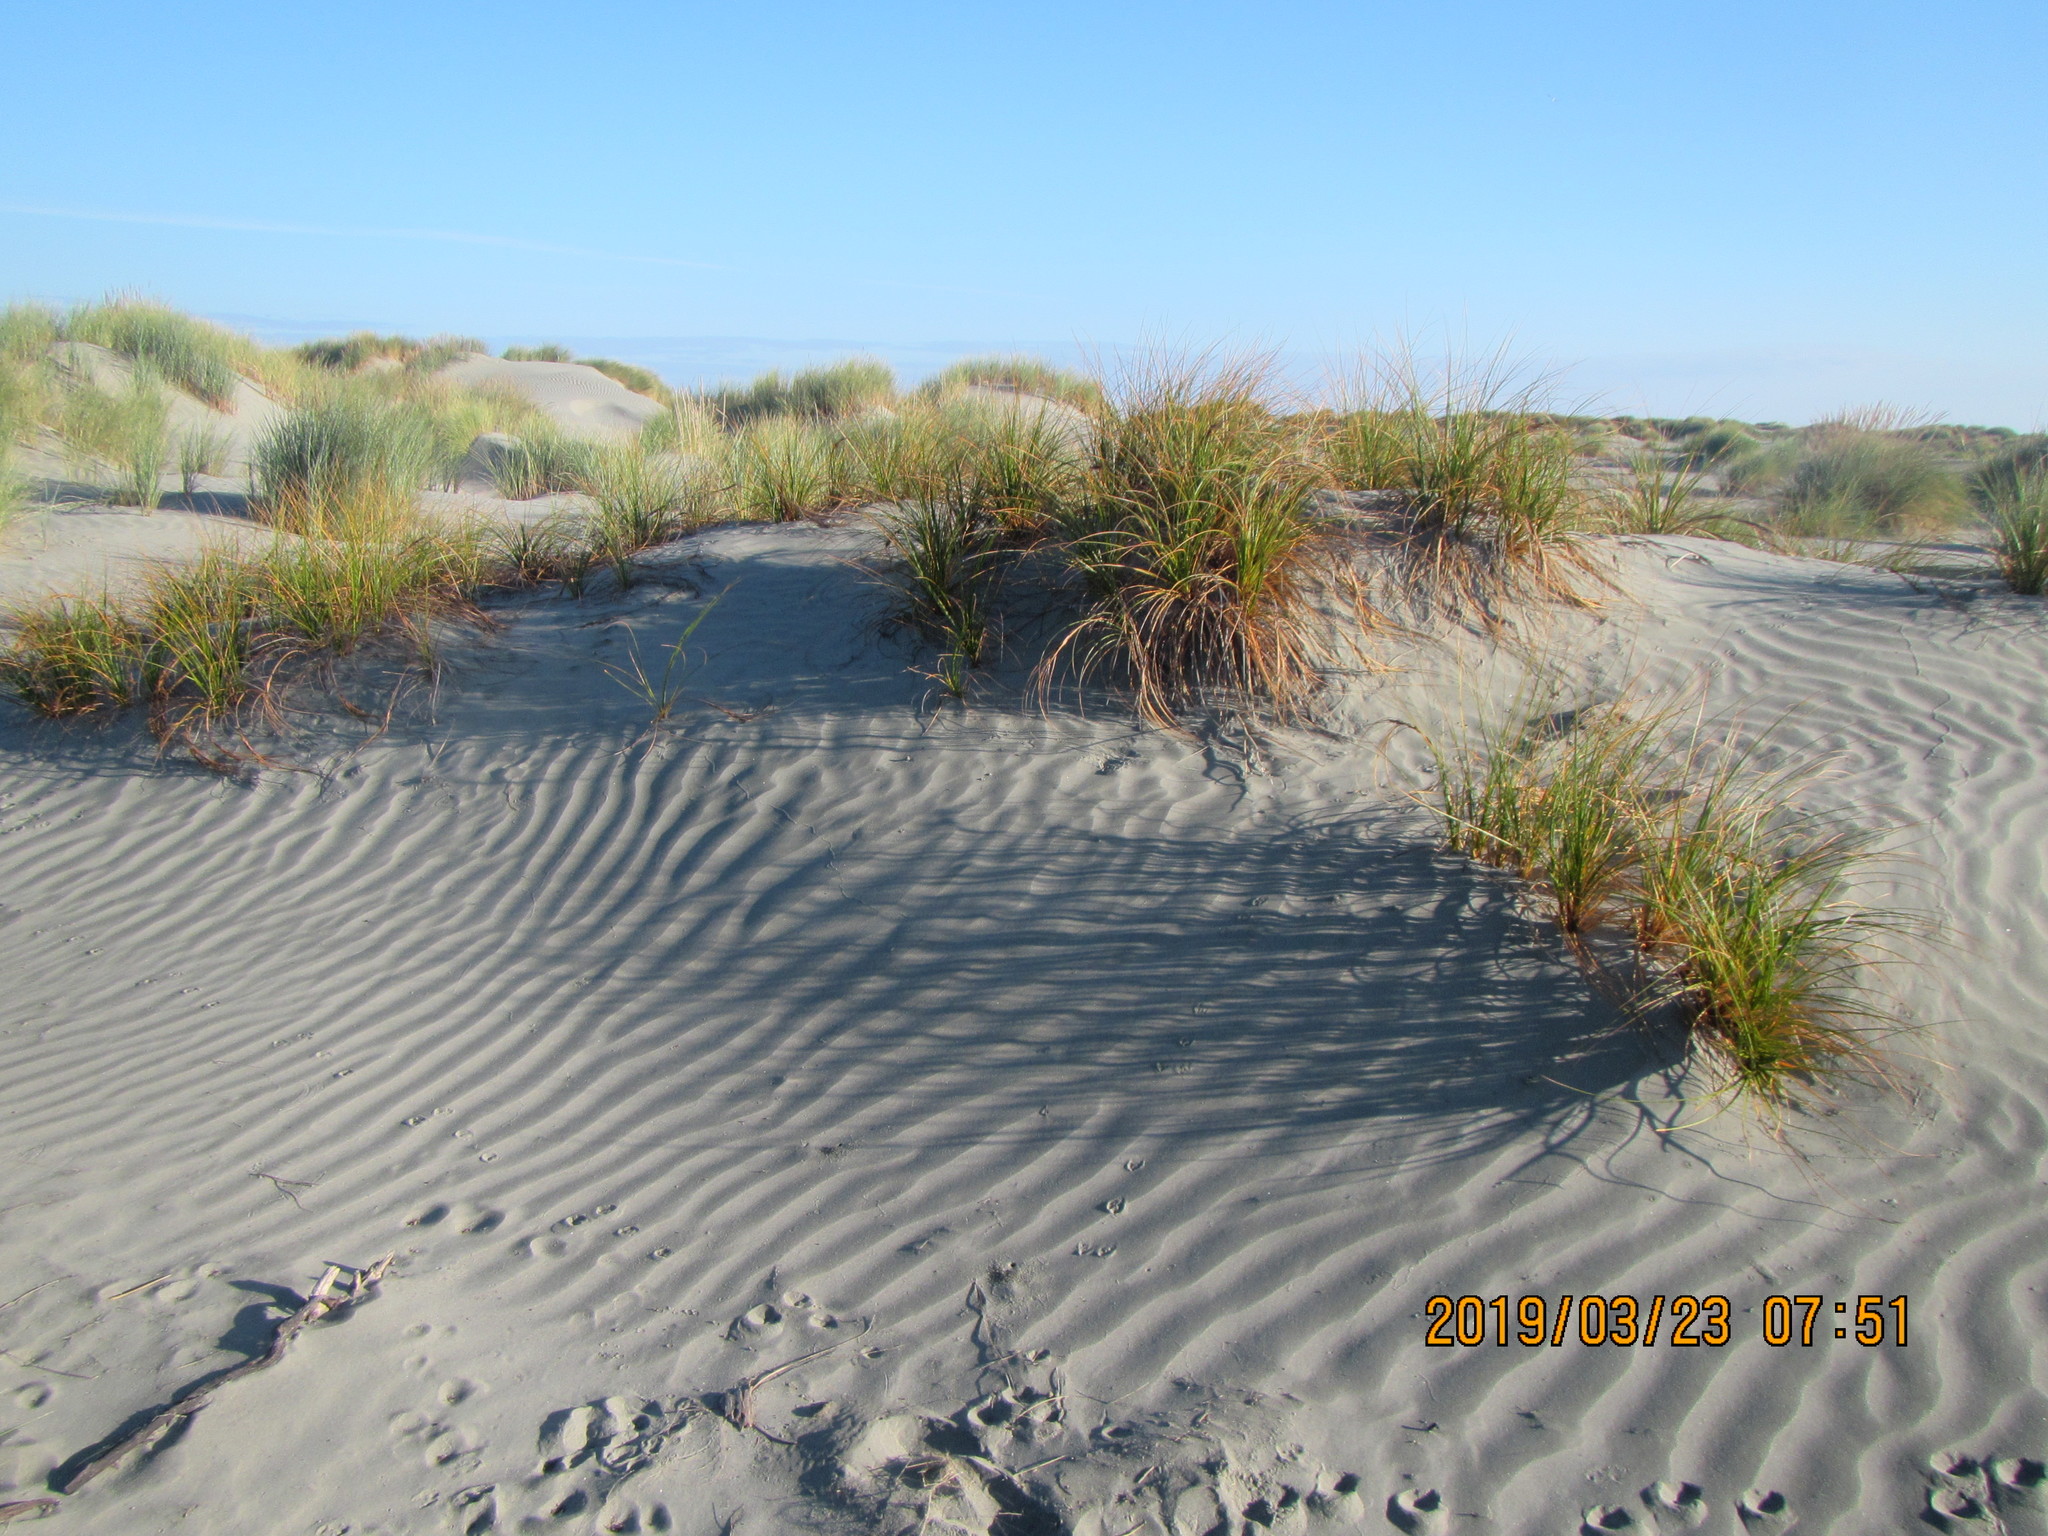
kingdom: Plantae
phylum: Tracheophyta
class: Liliopsida
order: Poales
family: Cyperaceae
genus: Ficinia
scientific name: Ficinia spiralis
